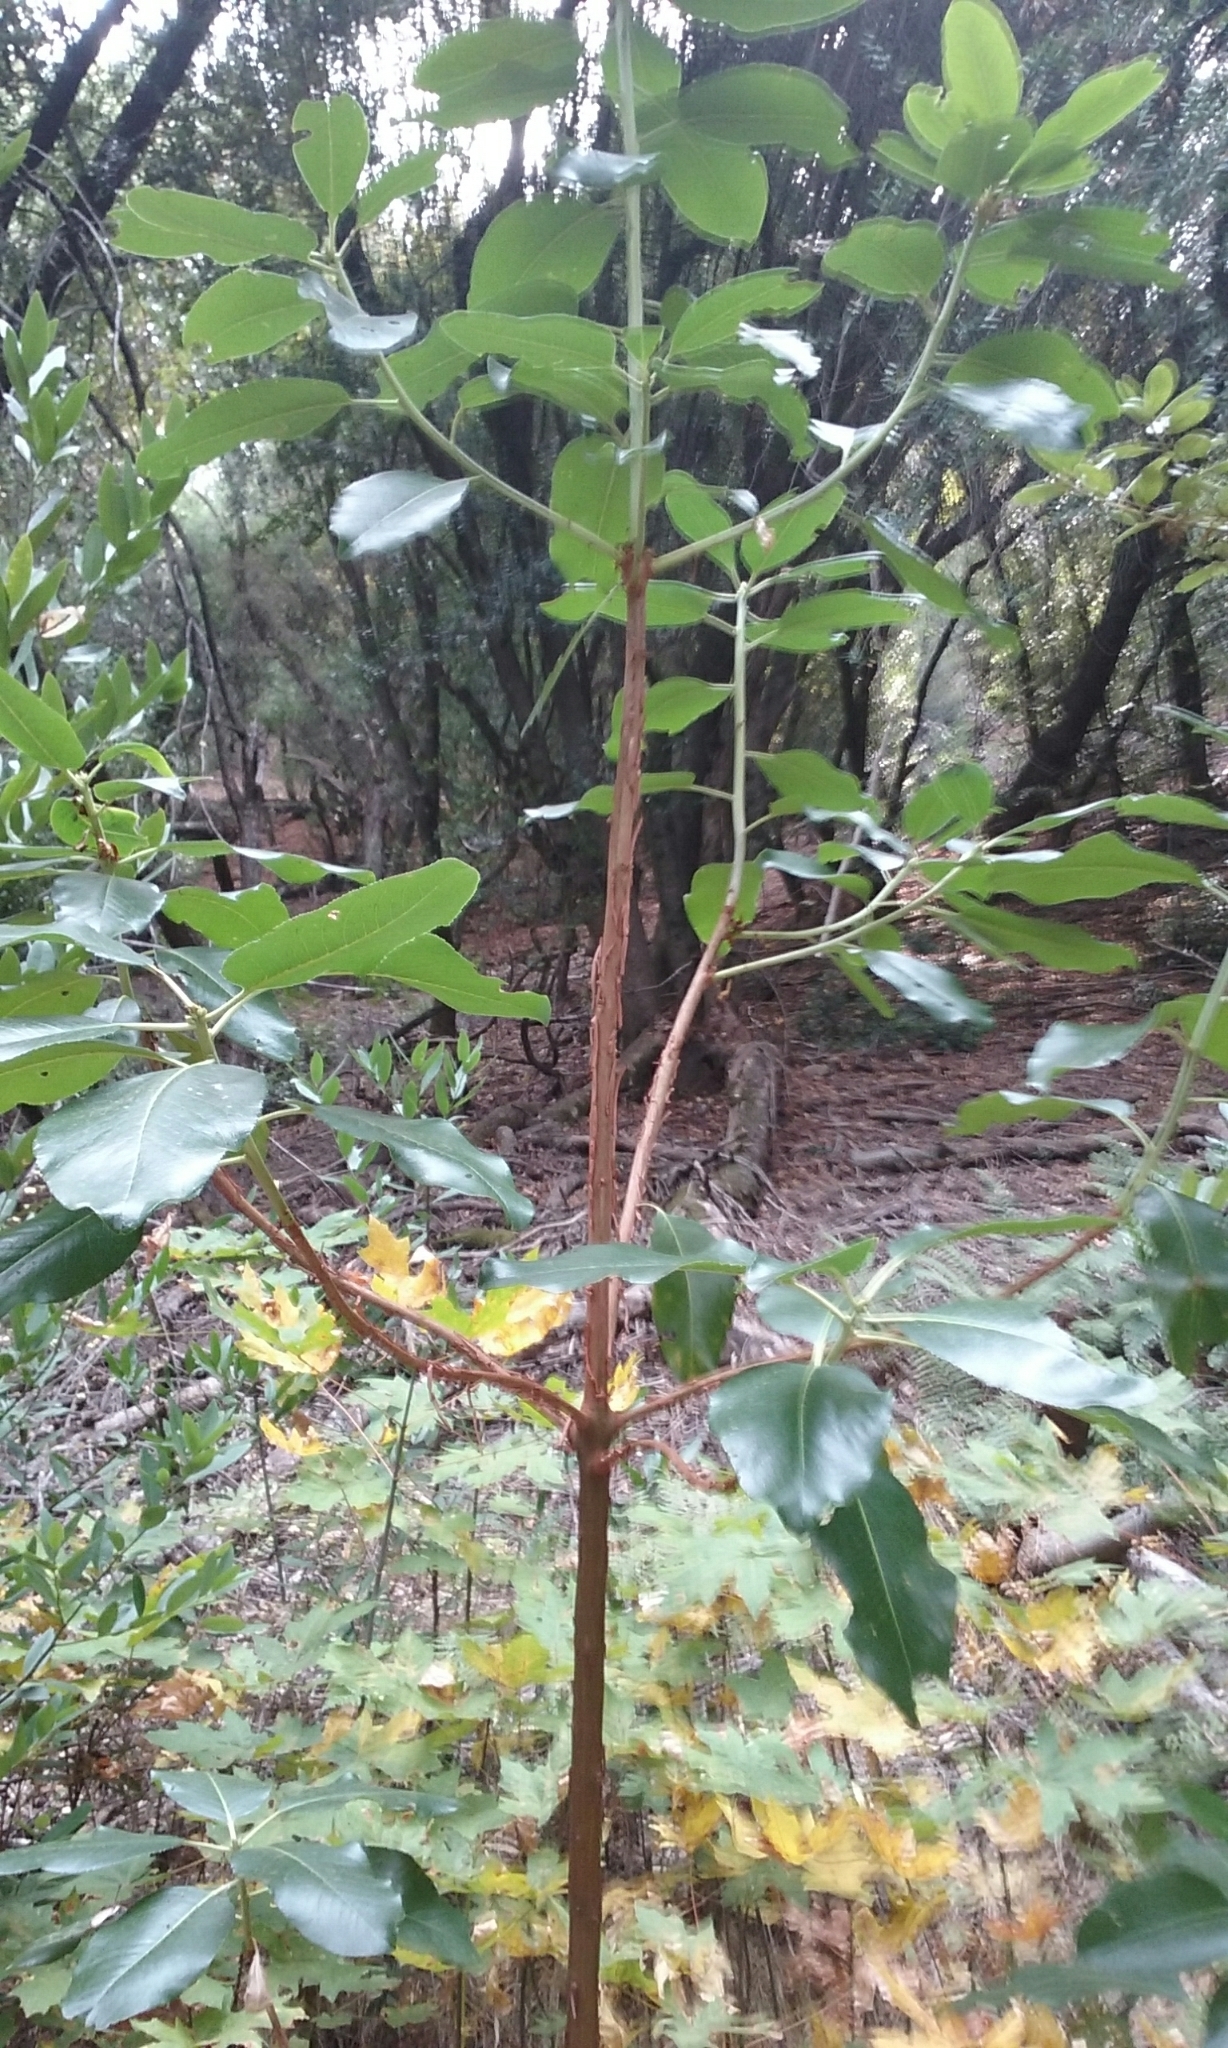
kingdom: Plantae
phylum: Tracheophyta
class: Magnoliopsida
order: Ericales
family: Ericaceae
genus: Arbutus
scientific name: Arbutus menziesii
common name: Pacific madrone
